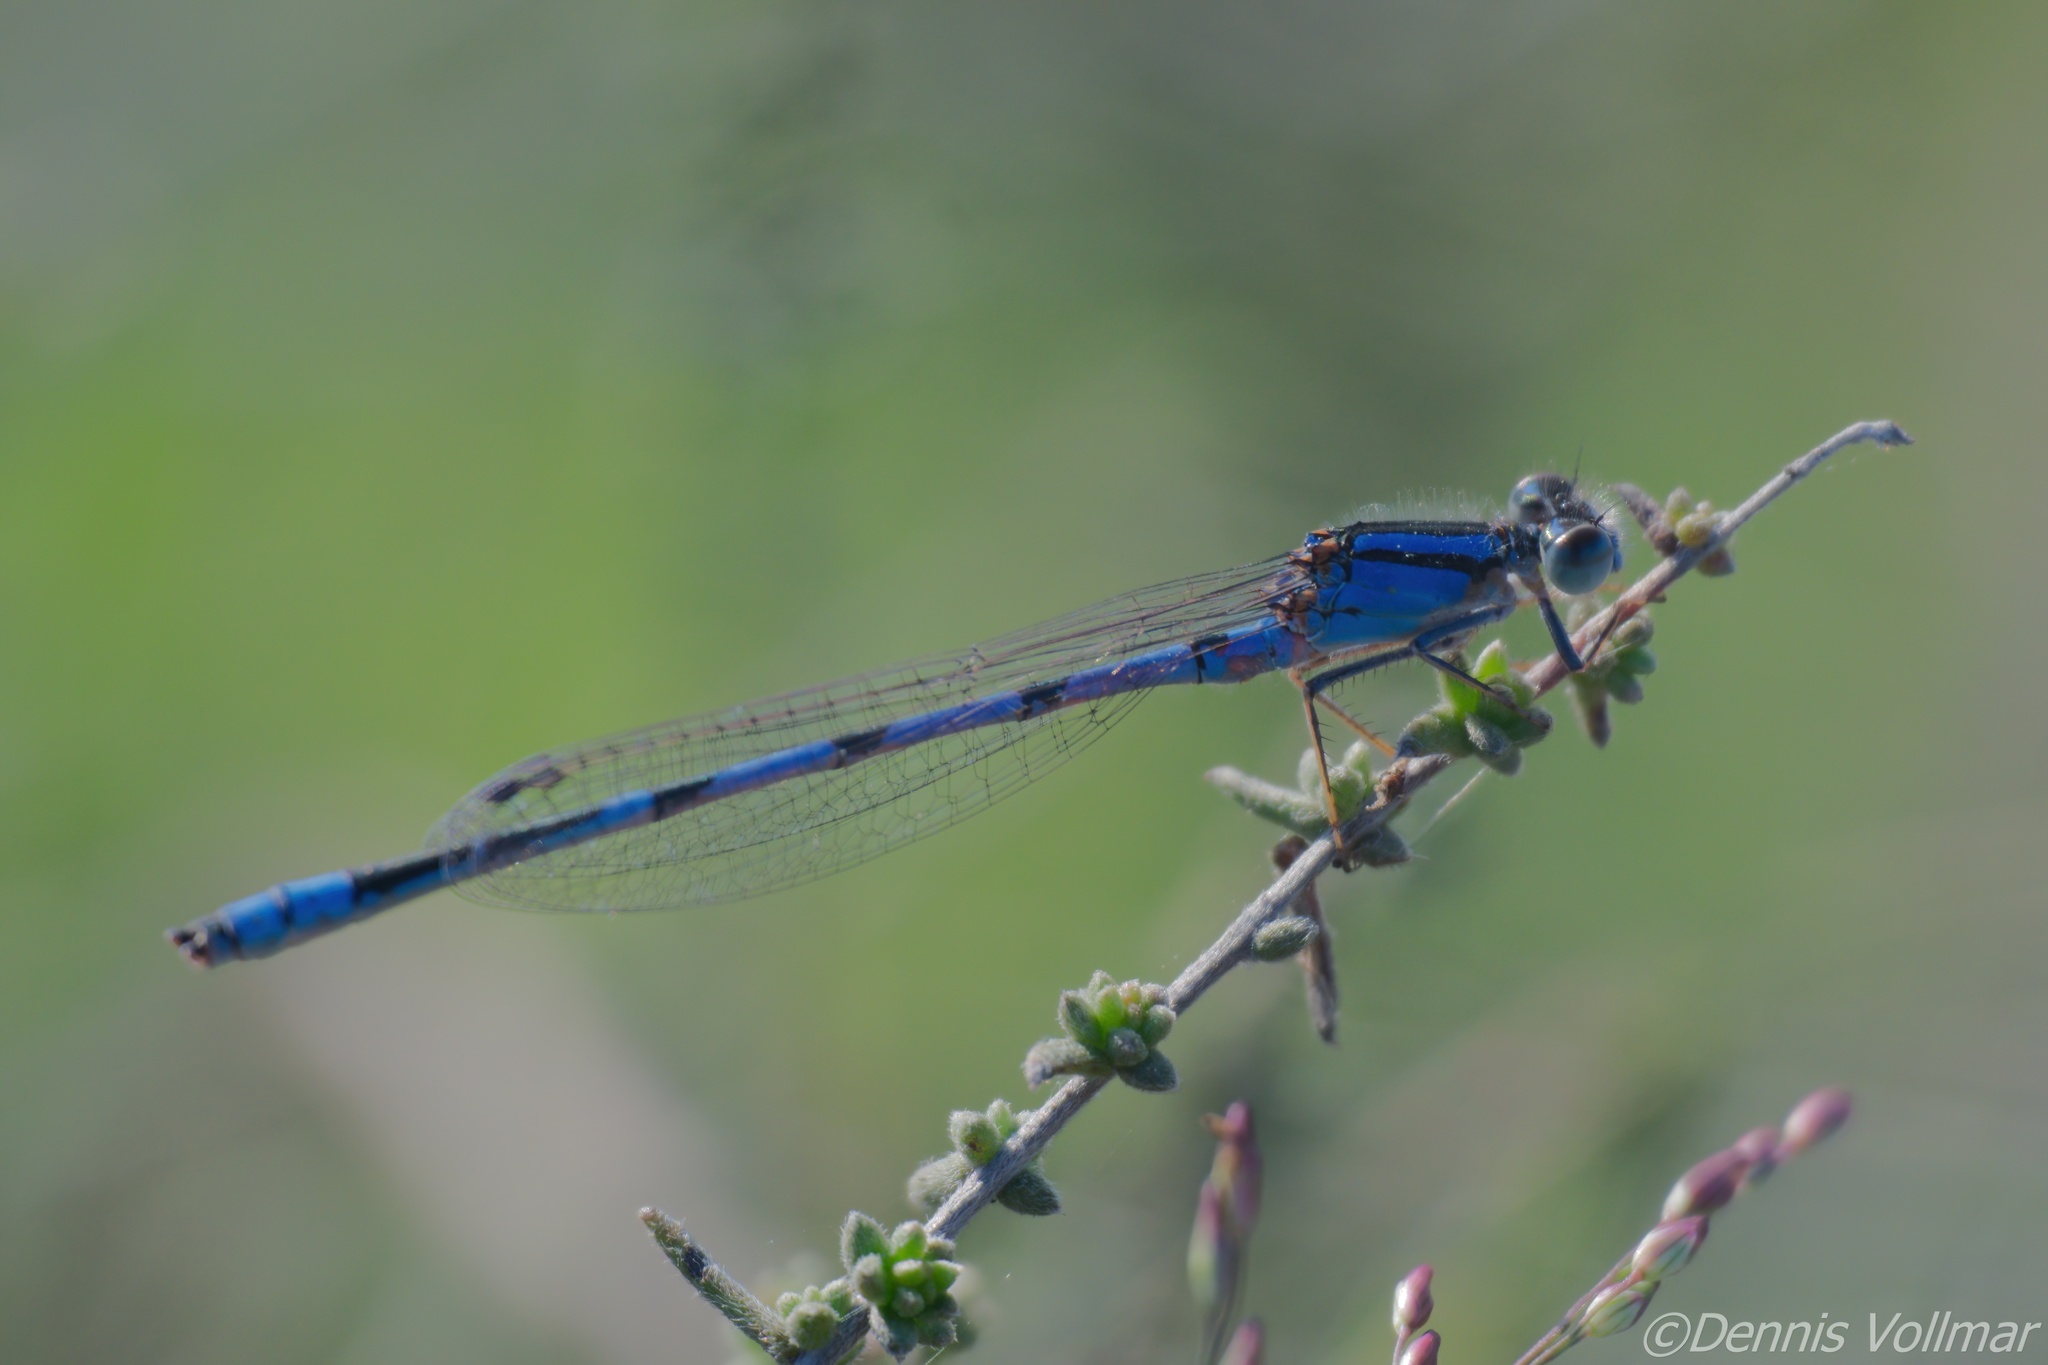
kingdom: Animalia
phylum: Arthropoda
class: Insecta
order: Odonata
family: Coenagrionidae
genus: Enallagma
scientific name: Enallagma civile
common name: Damselfly
